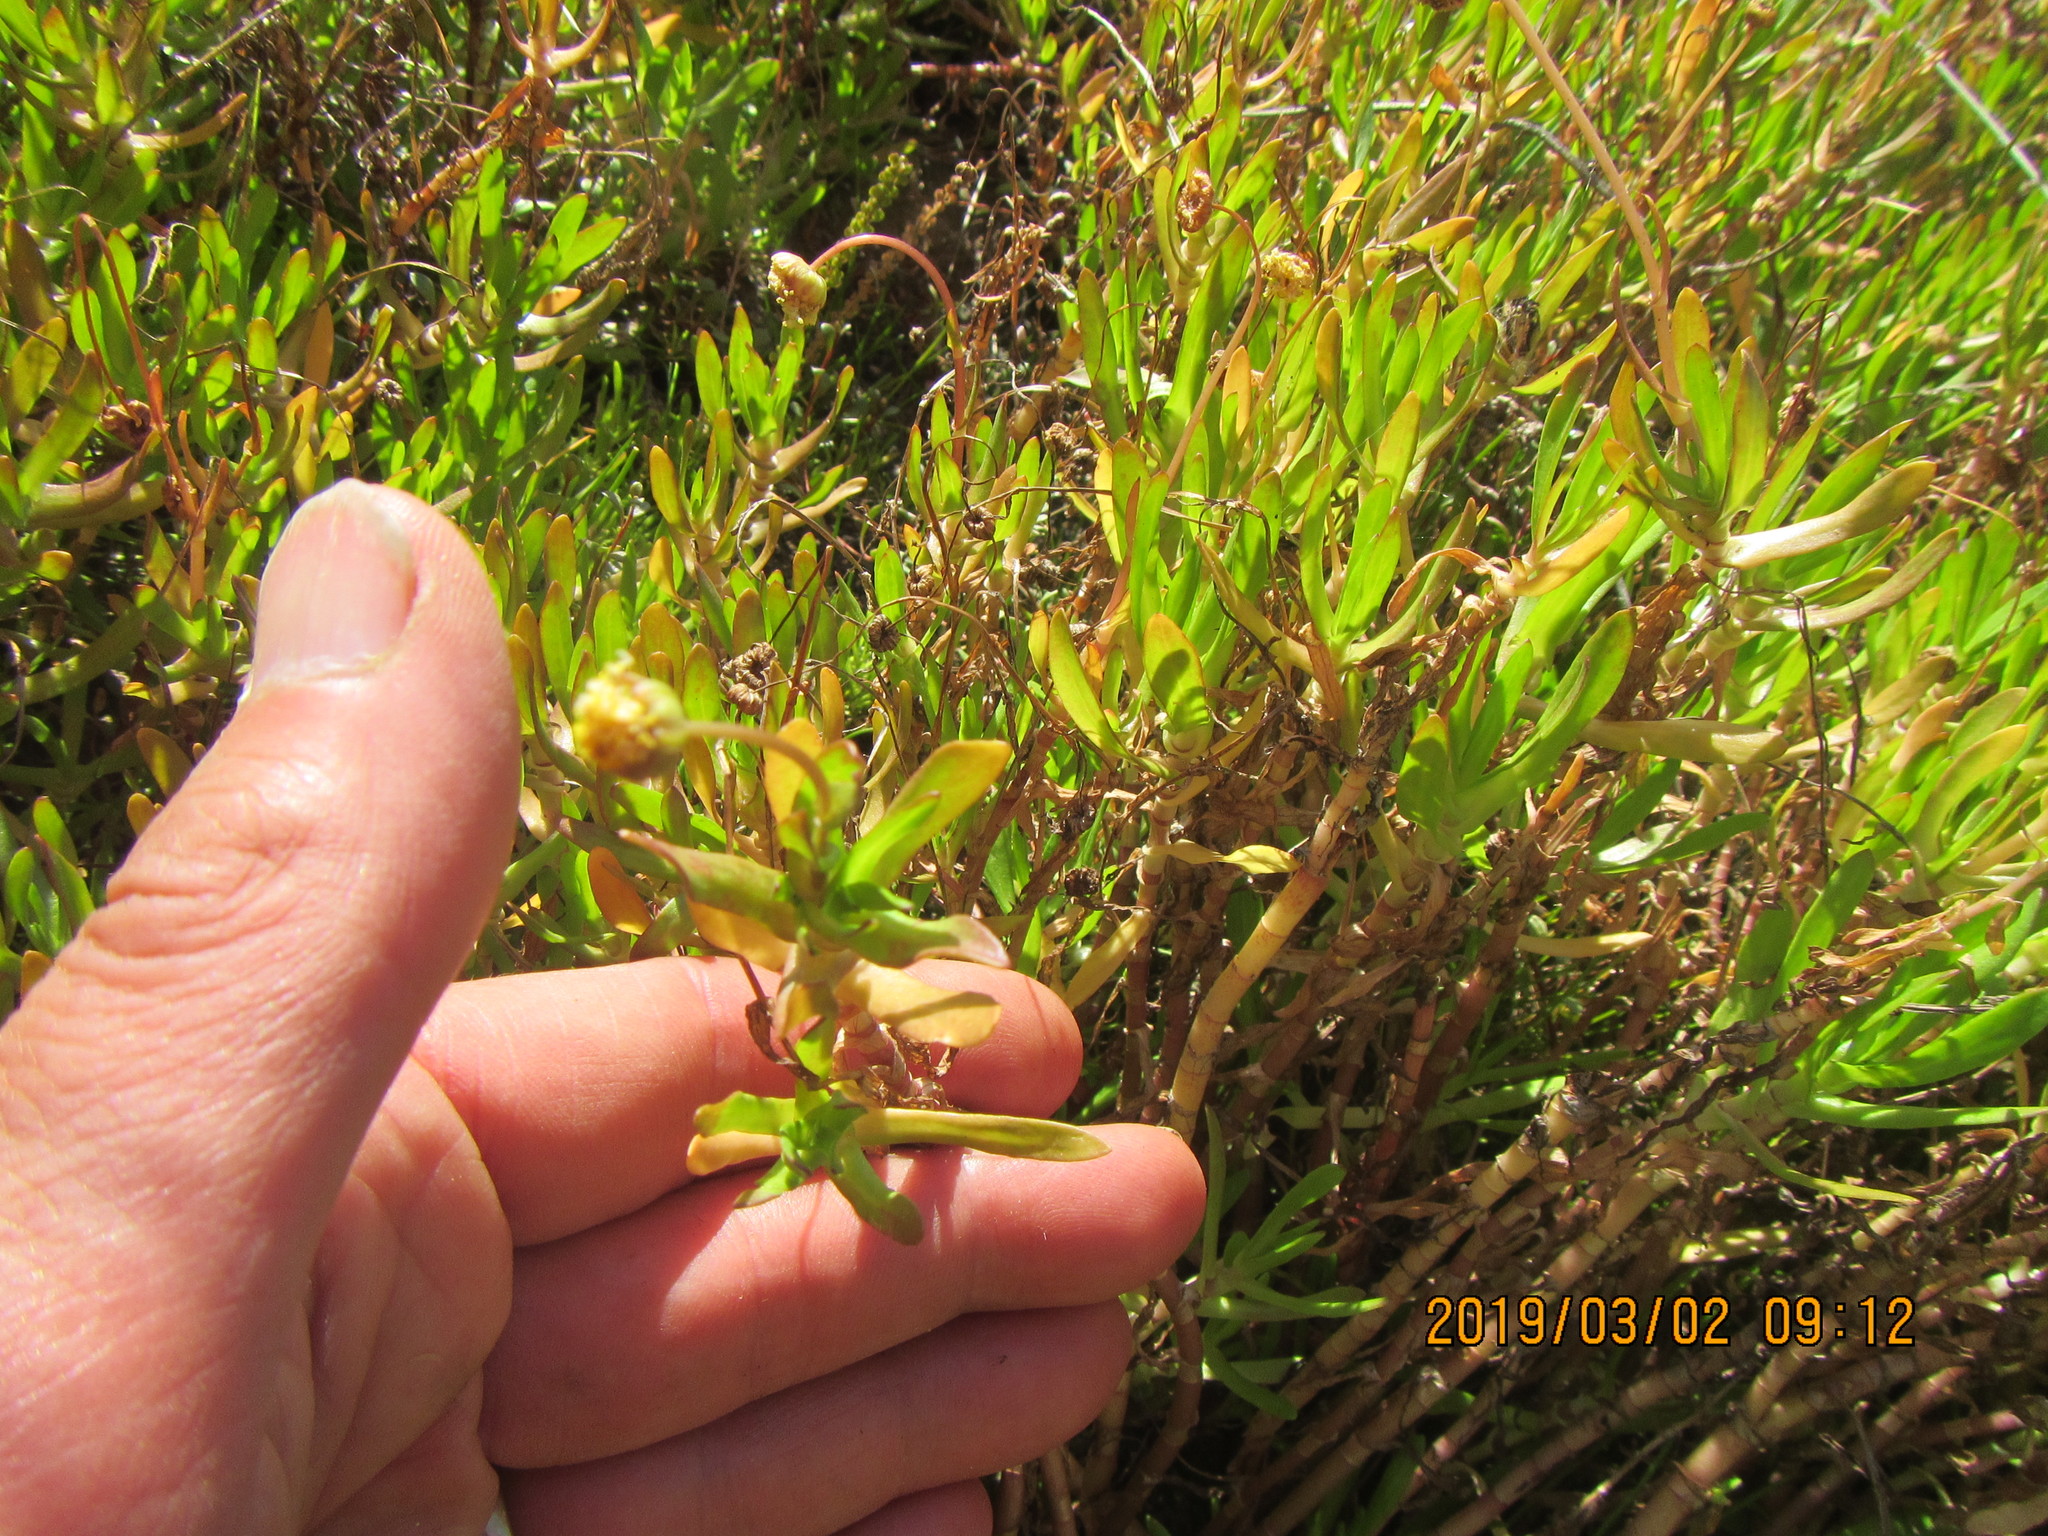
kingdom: Plantae
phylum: Tracheophyta
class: Magnoliopsida
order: Asterales
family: Asteraceae
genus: Cotula
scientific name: Cotula coronopifolia
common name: Buttonweed
